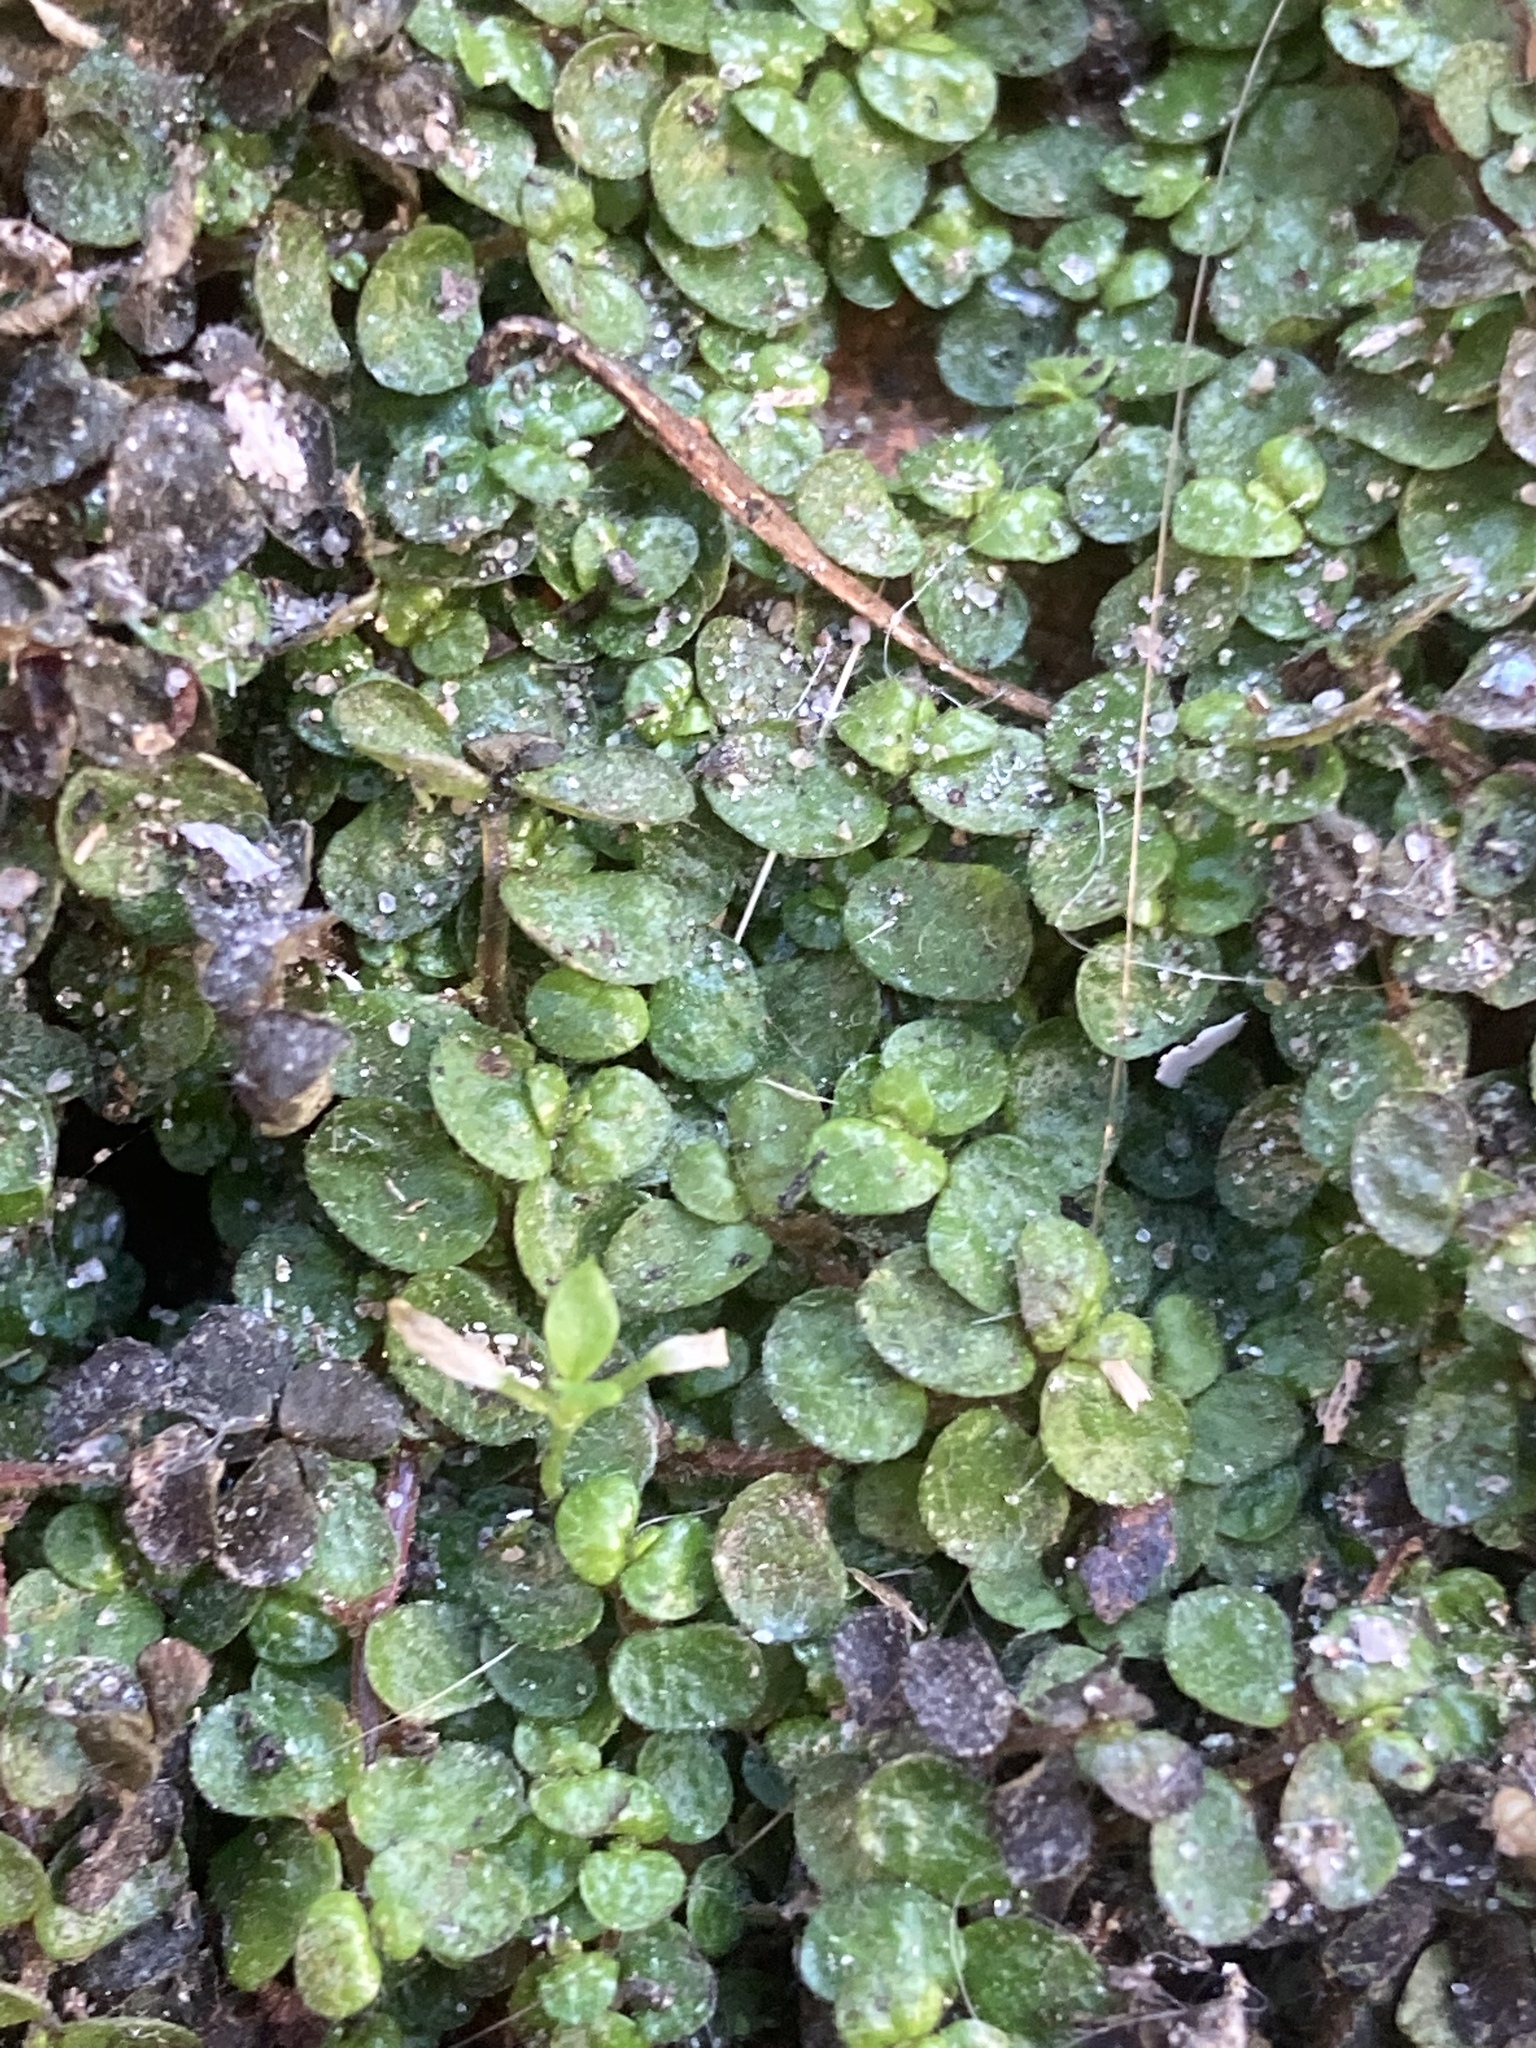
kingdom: Plantae
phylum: Tracheophyta
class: Magnoliopsida
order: Rosales
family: Urticaceae
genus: Soleirolia
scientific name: Soleirolia soleirolii
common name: Mind-your-own-business
